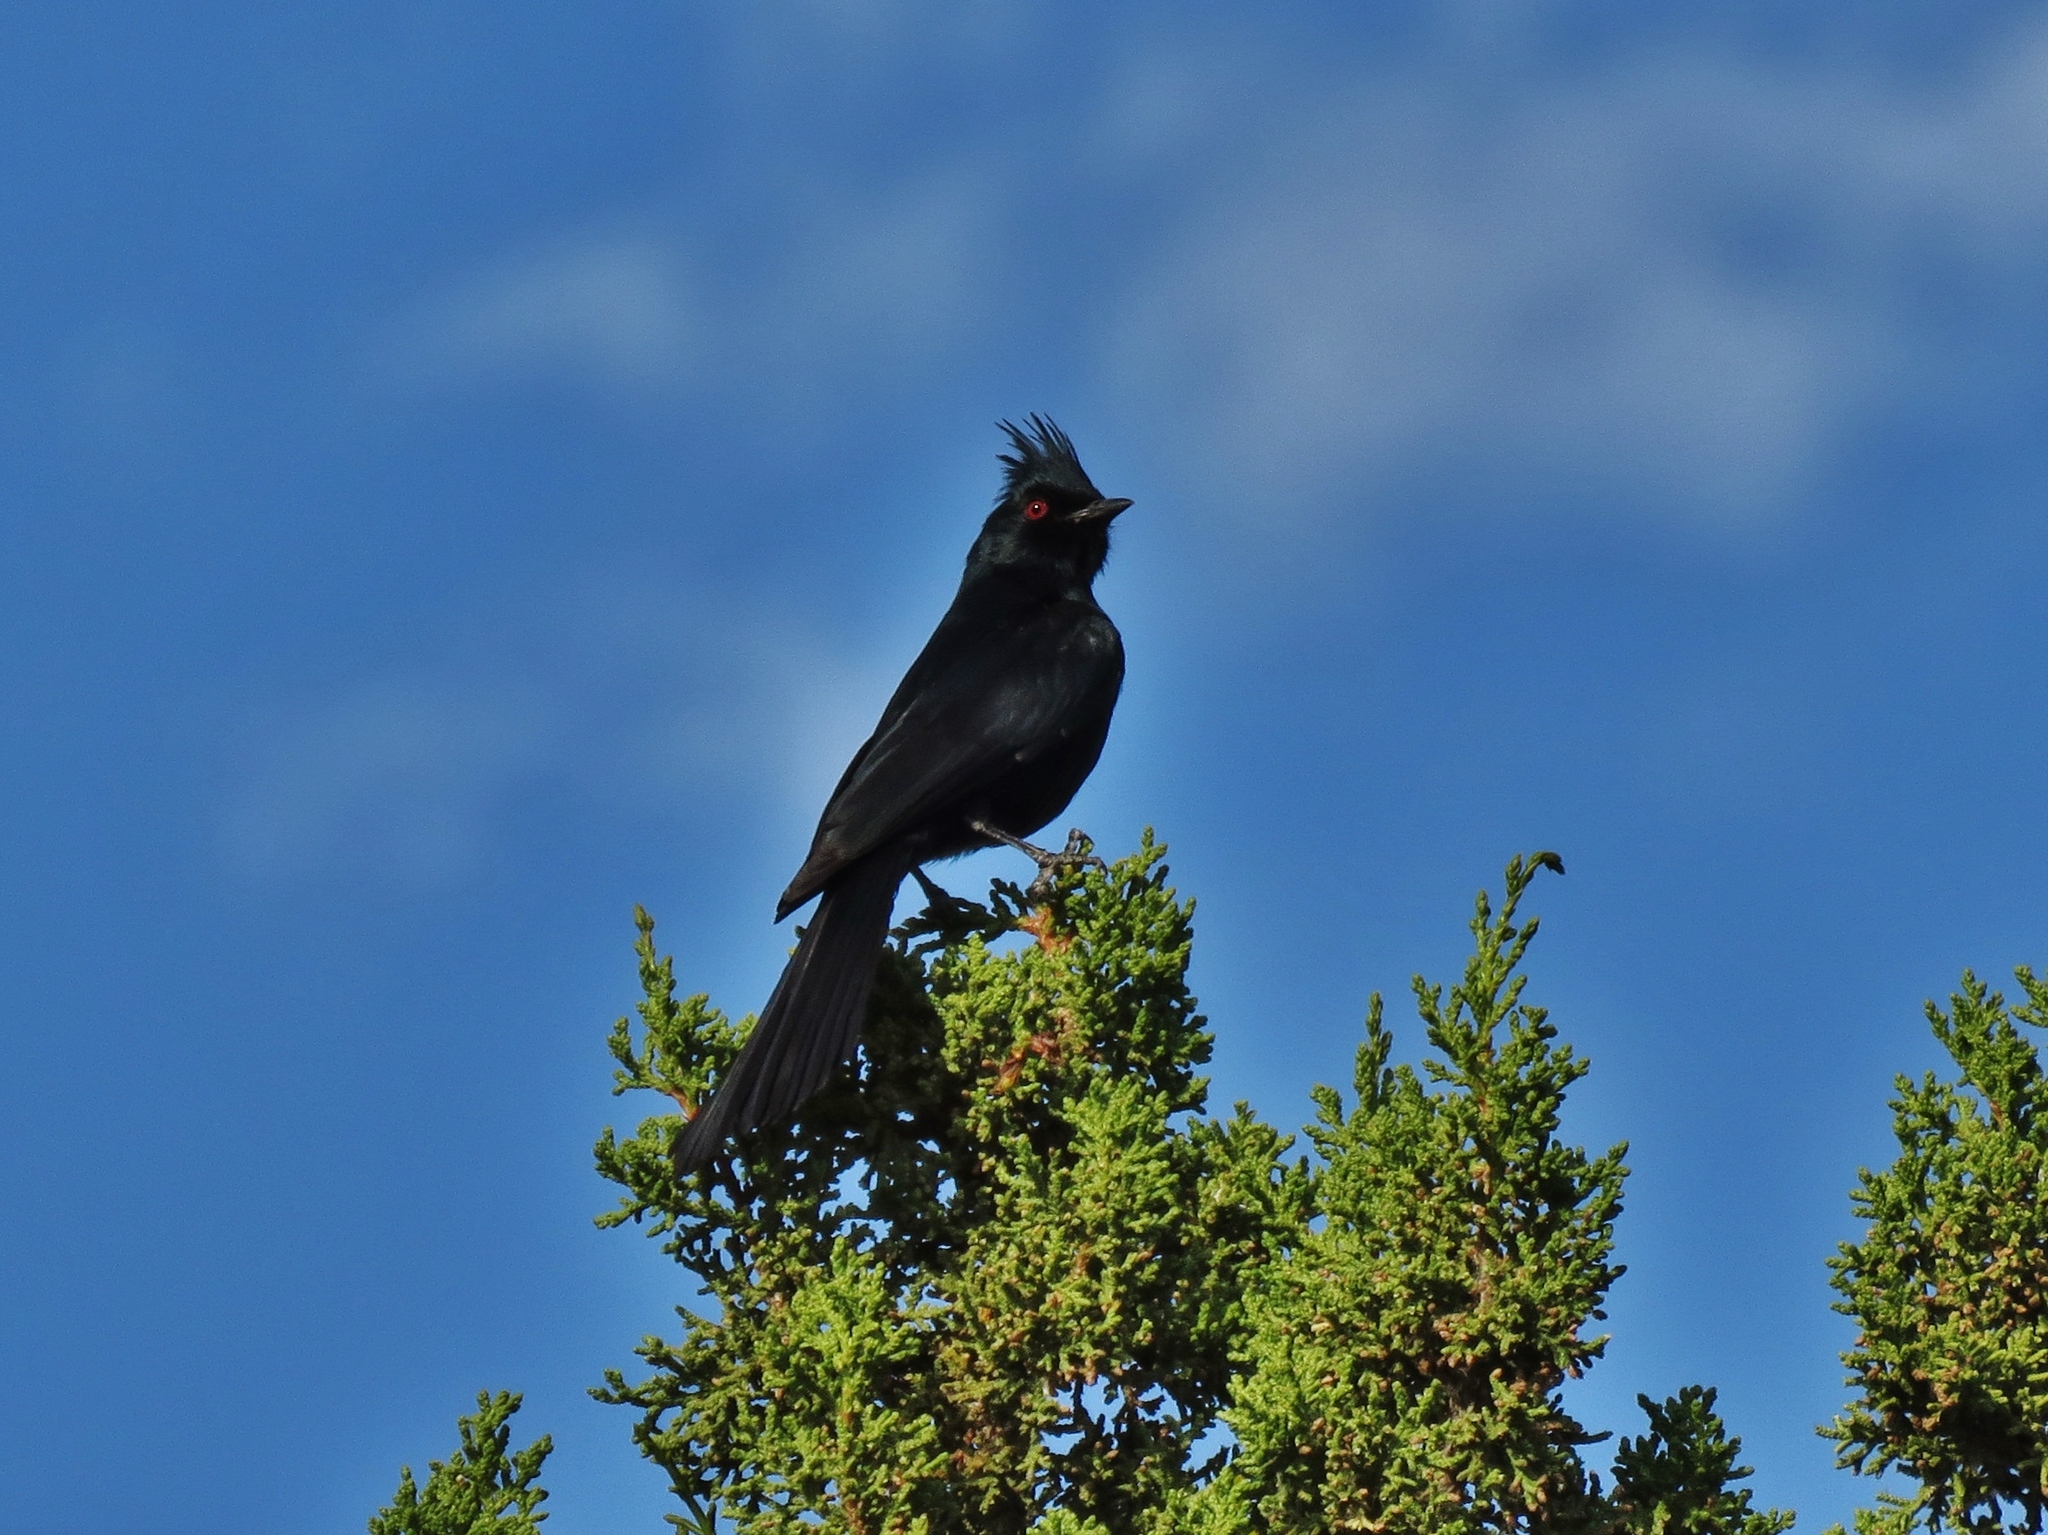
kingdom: Animalia
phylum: Chordata
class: Aves
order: Passeriformes
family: Ptilogonatidae
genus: Phainopepla
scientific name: Phainopepla nitens
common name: Phainopepla
